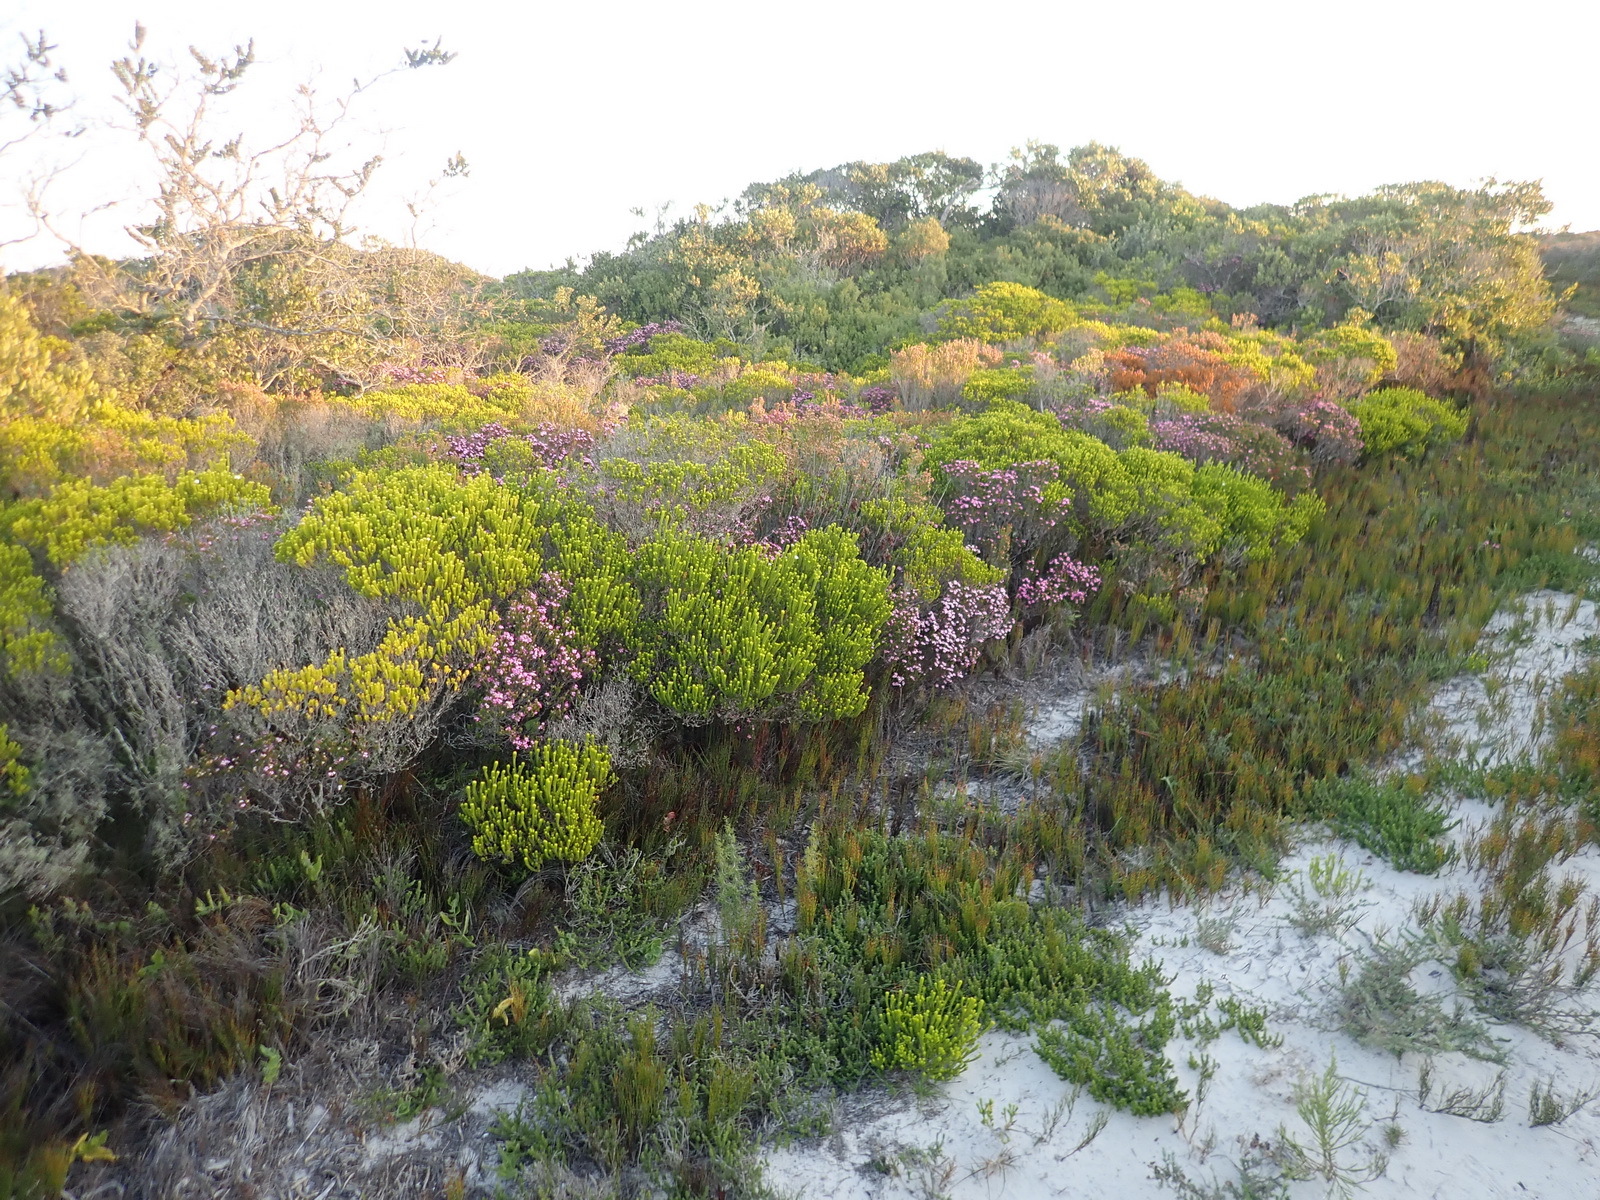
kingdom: Plantae
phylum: Tracheophyta
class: Magnoliopsida
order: Sapindales
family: Rutaceae
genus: Acmadenia
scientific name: Acmadenia obtusata
